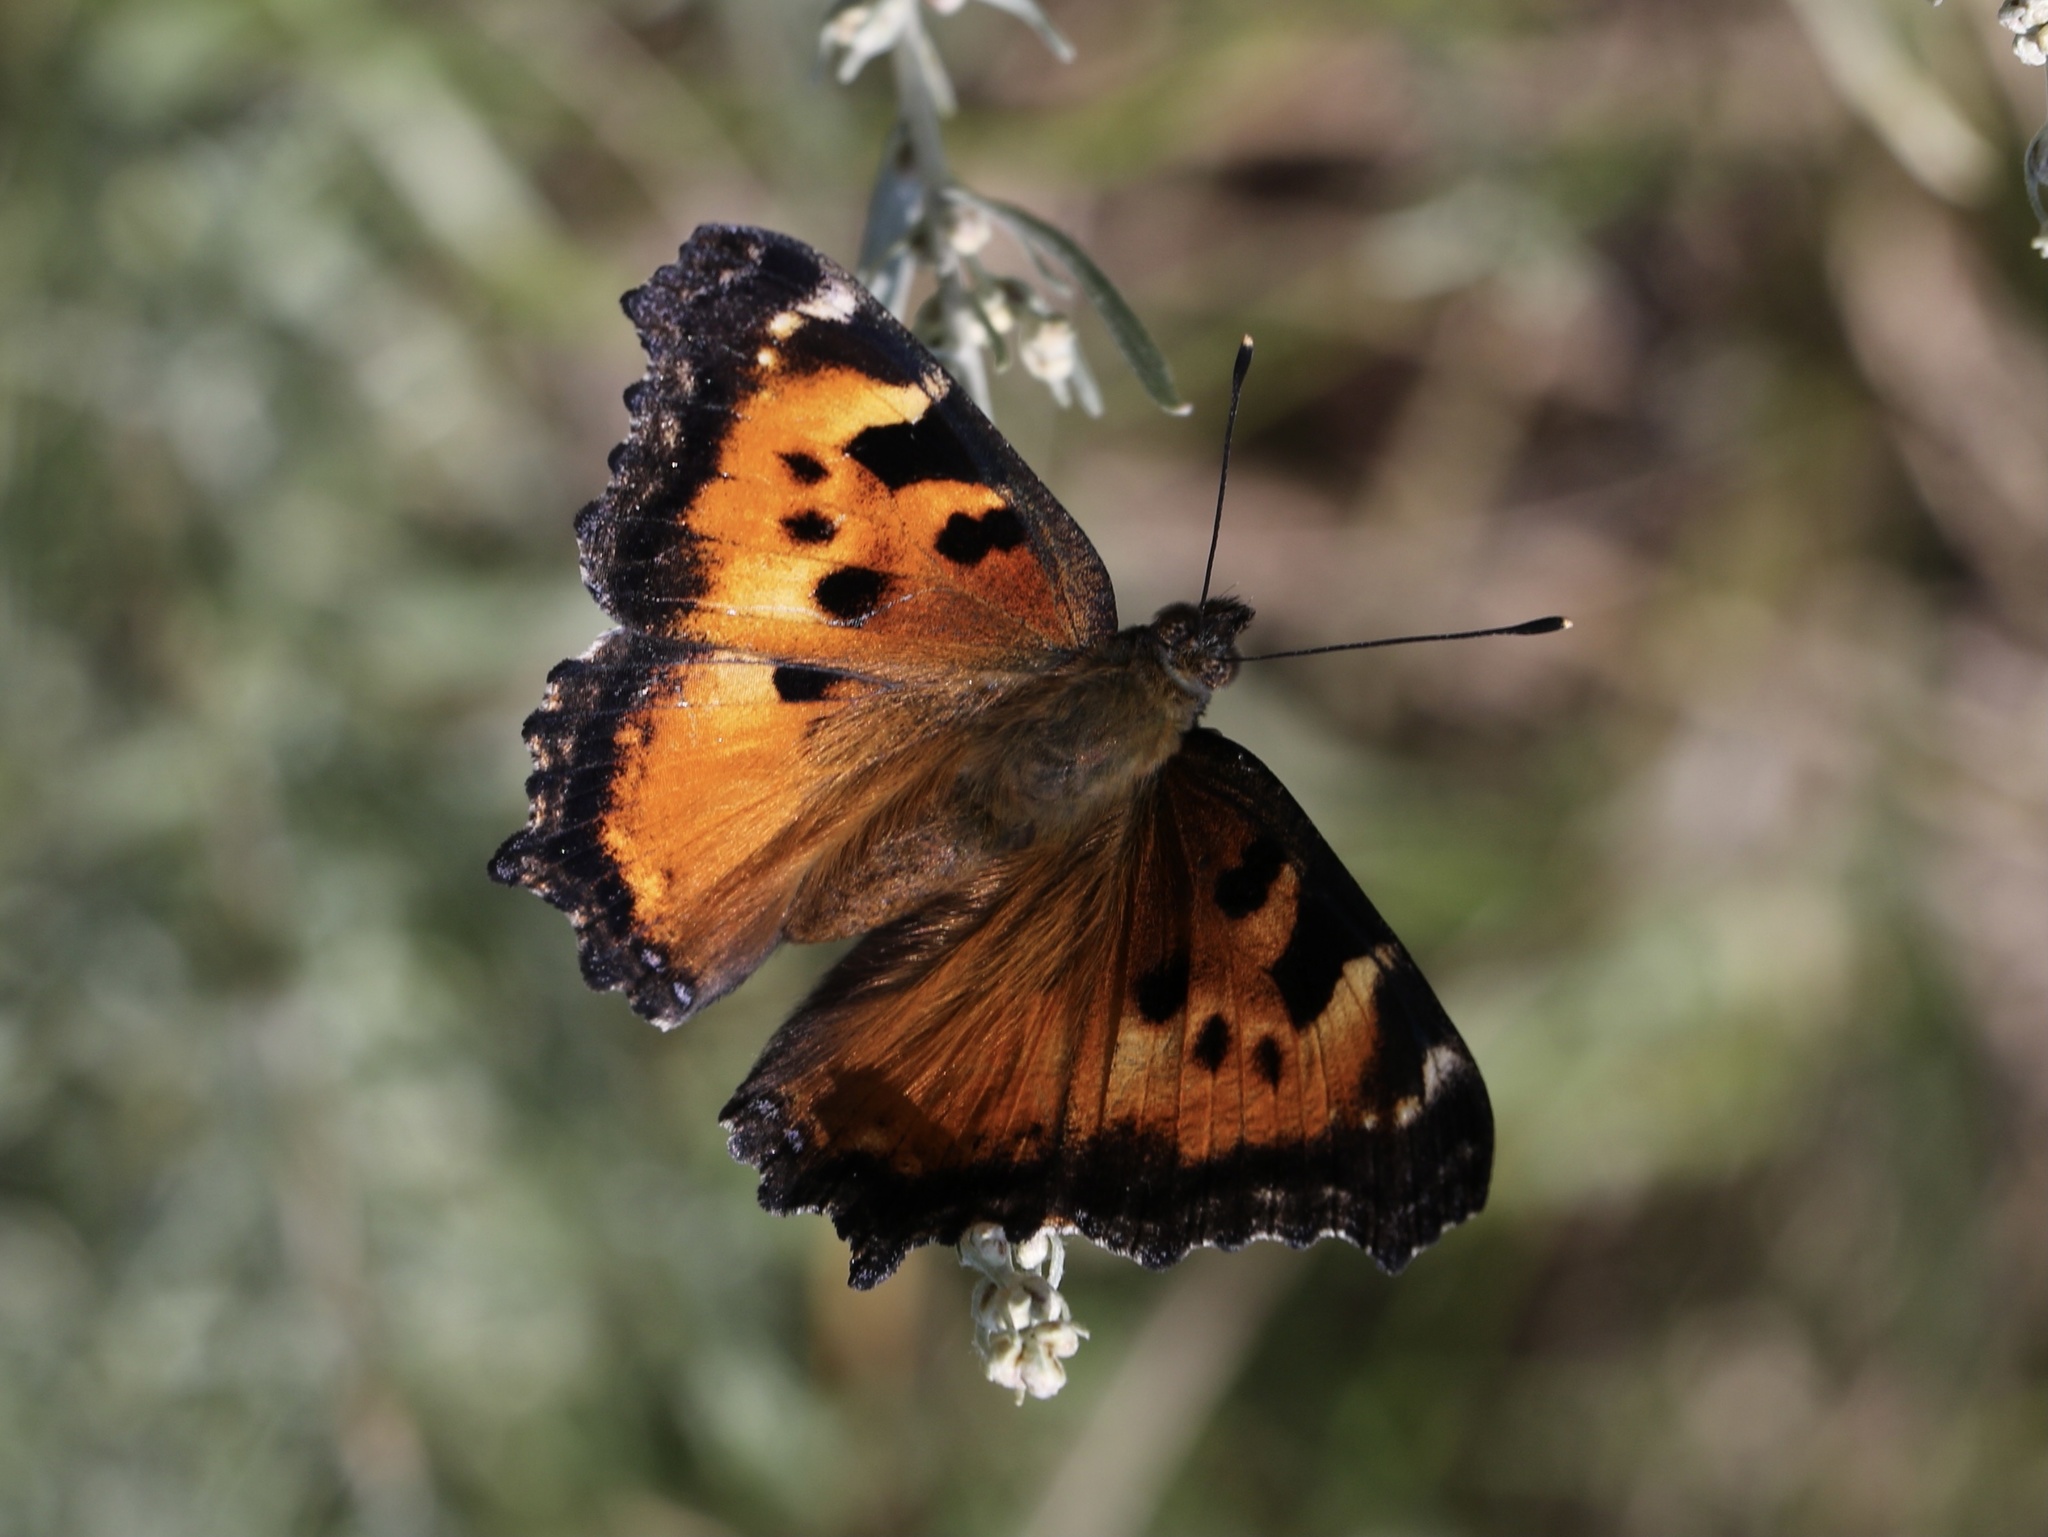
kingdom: Animalia
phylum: Arthropoda
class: Insecta
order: Lepidoptera
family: Nymphalidae
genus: Nymphalis
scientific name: Nymphalis californica
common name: California tortoiseshell
